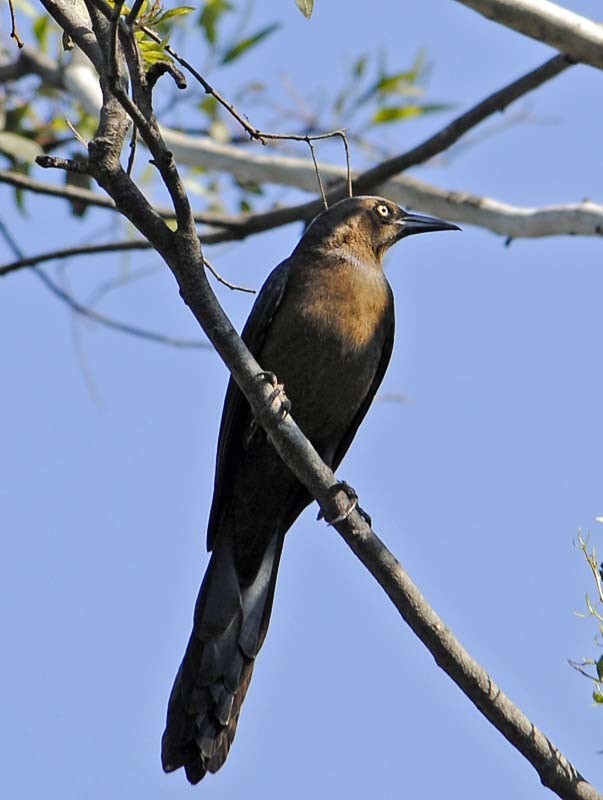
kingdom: Animalia
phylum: Chordata
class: Aves
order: Passeriformes
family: Icteridae
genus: Quiscalus
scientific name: Quiscalus mexicanus
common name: Great-tailed grackle
